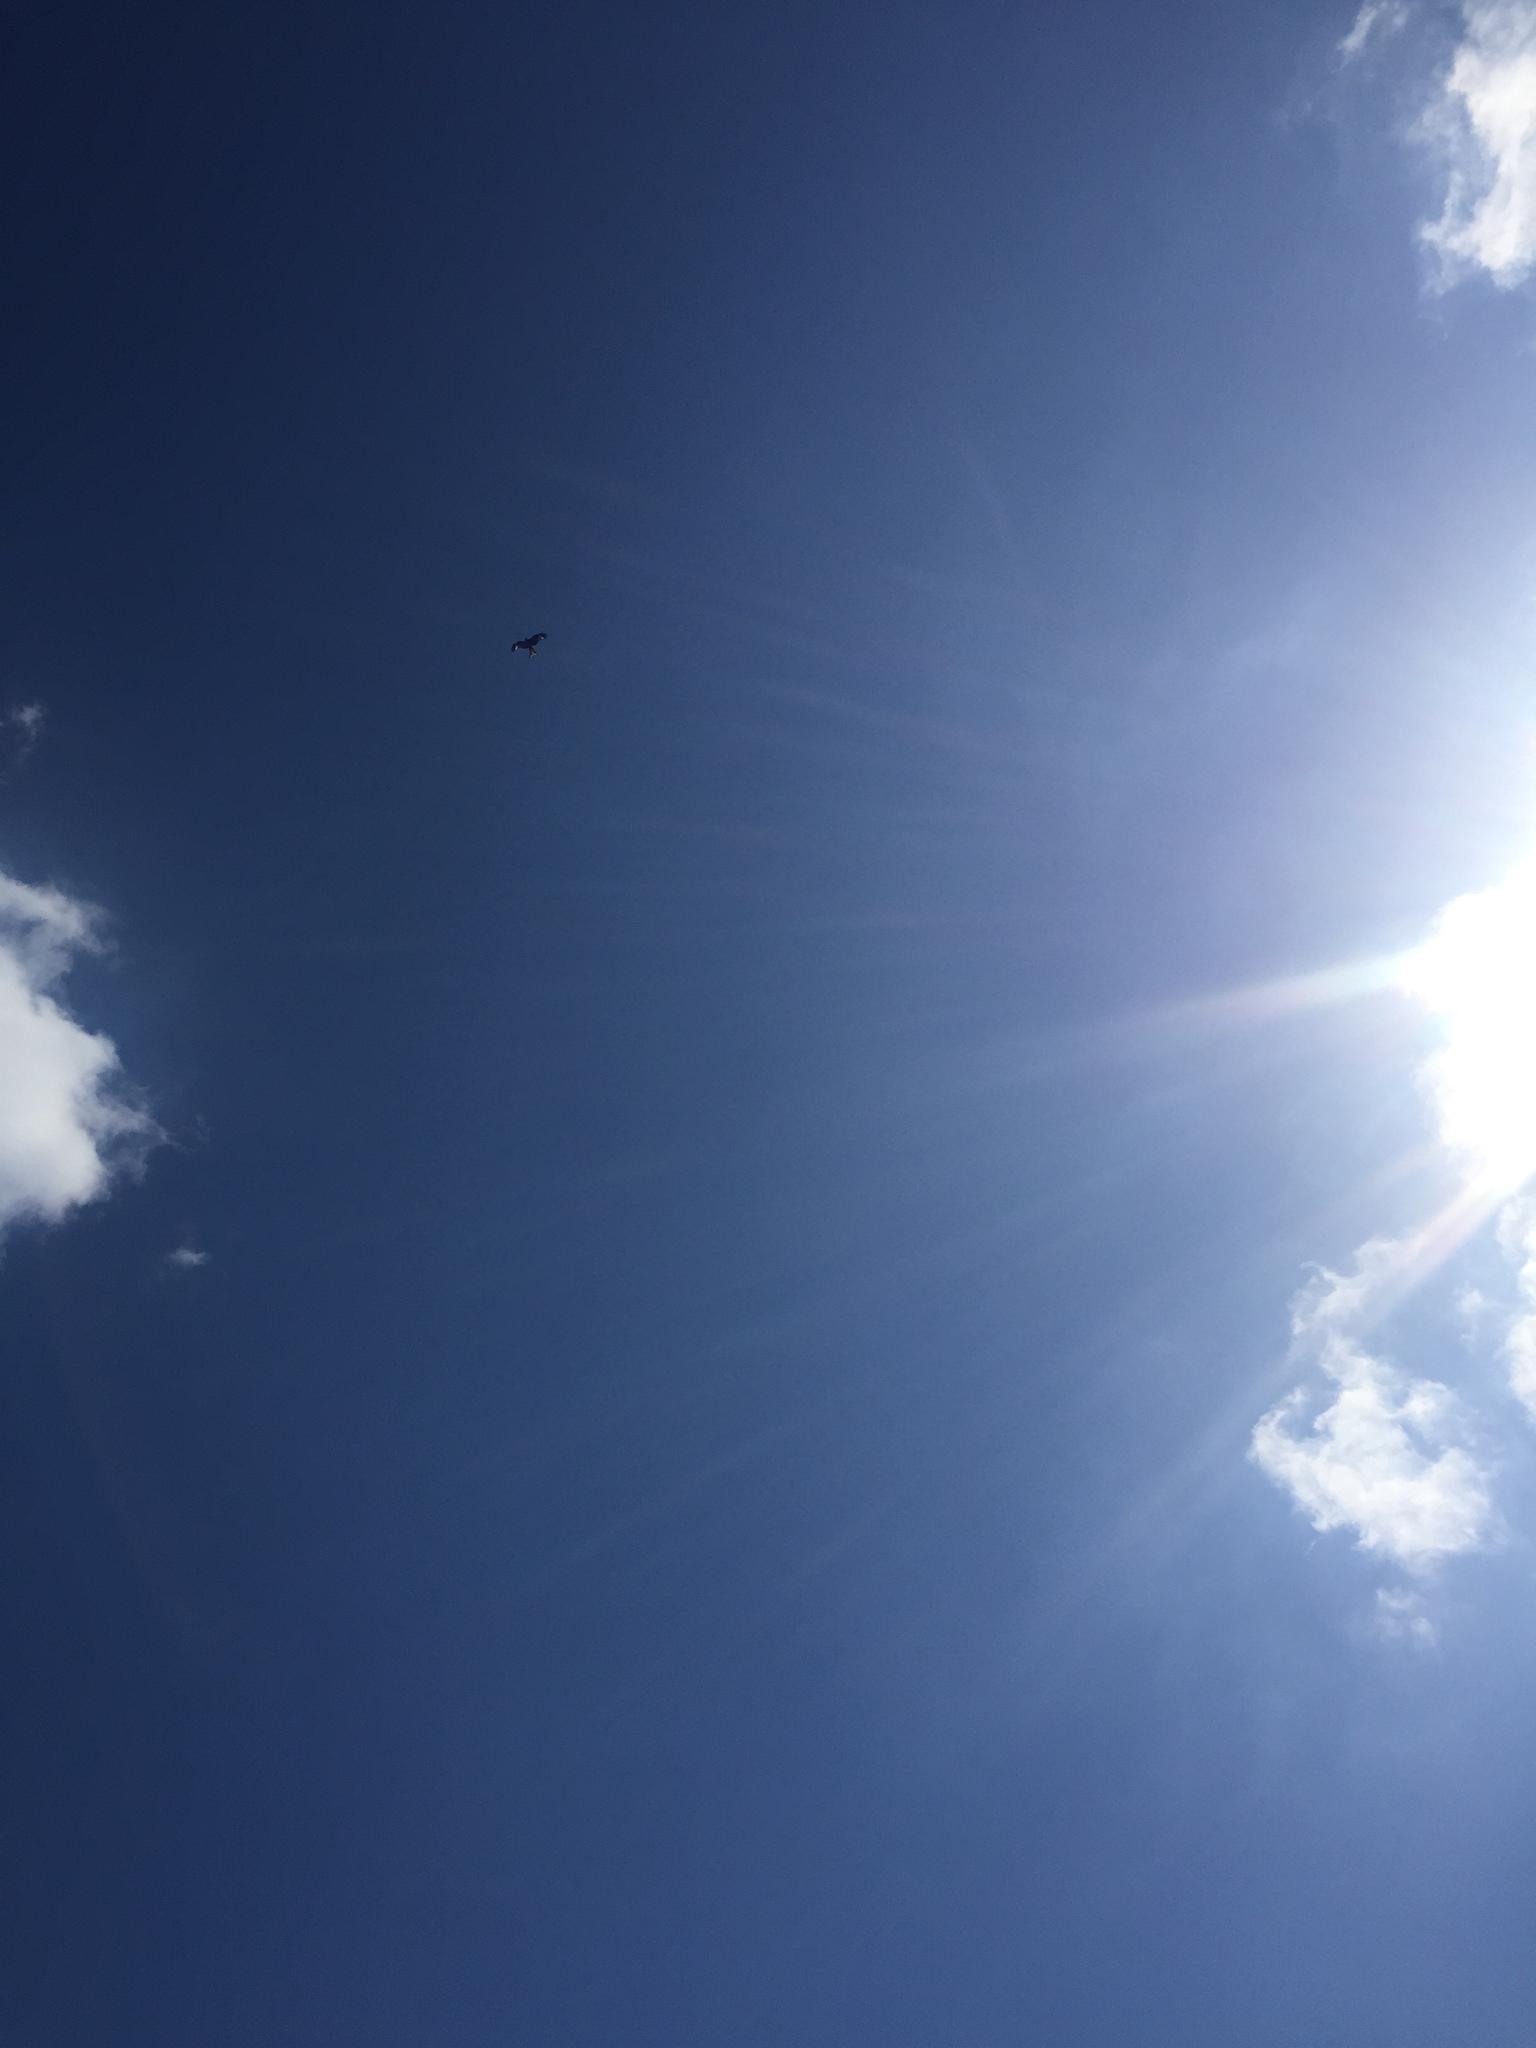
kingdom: Animalia
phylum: Chordata
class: Aves
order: Accipitriformes
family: Accipitridae
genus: Milvus
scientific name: Milvus milvus
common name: Red kite
